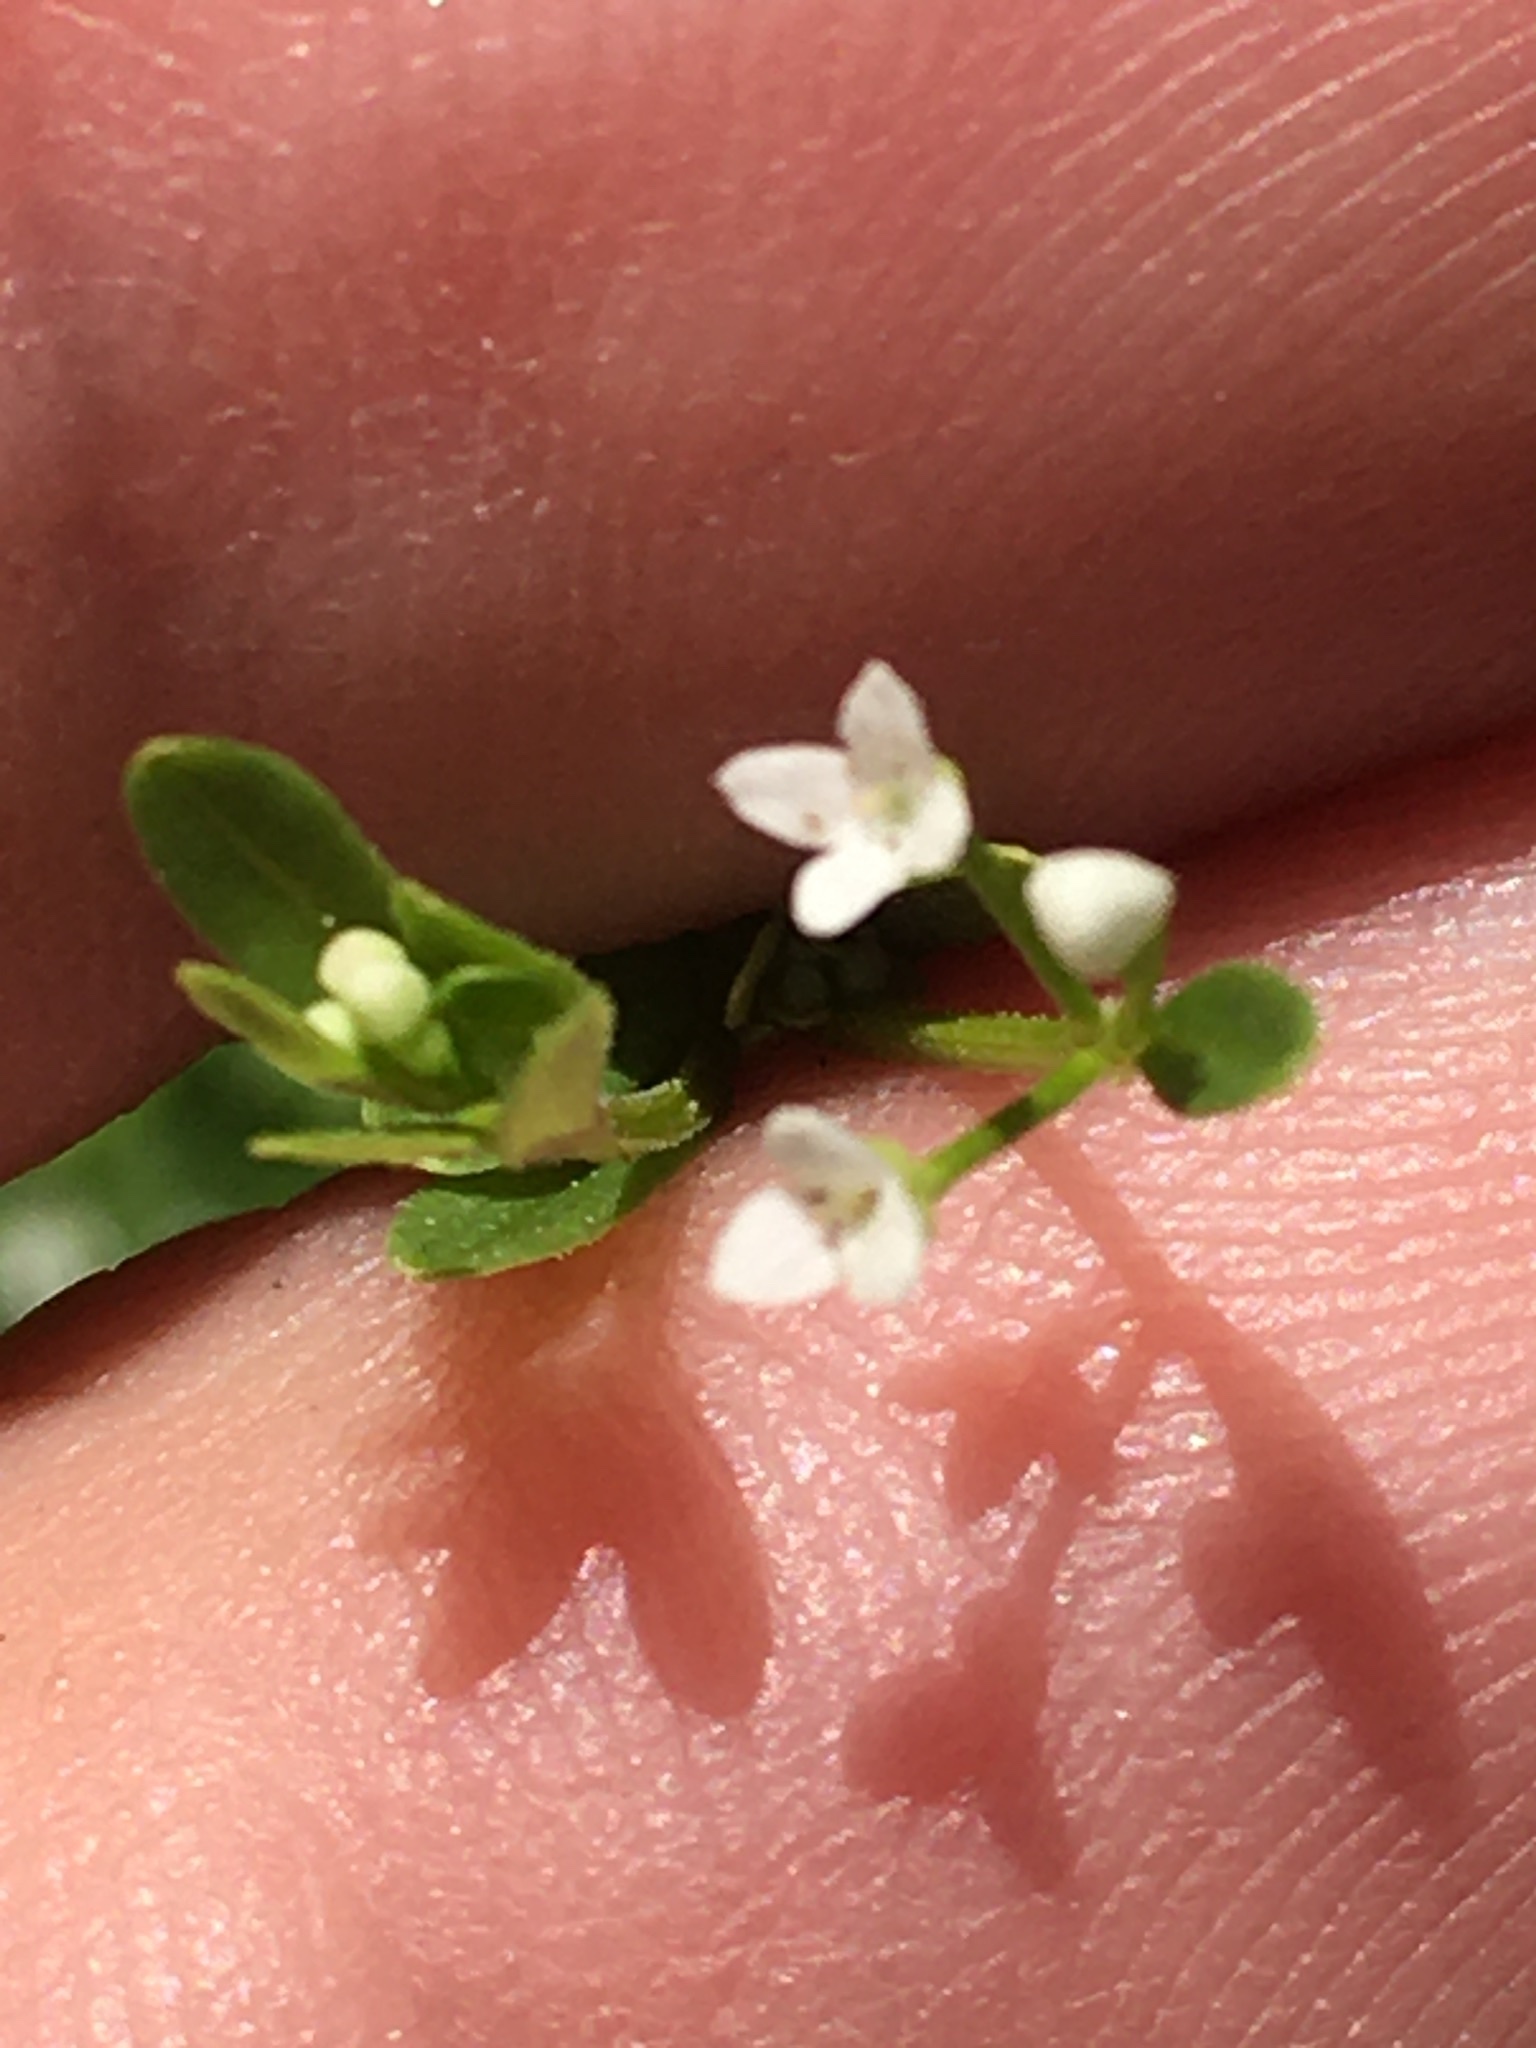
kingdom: Plantae
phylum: Tracheophyta
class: Magnoliopsida
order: Gentianales
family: Rubiaceae
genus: Galium
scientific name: Galium tinctorium
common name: Bedstraw
